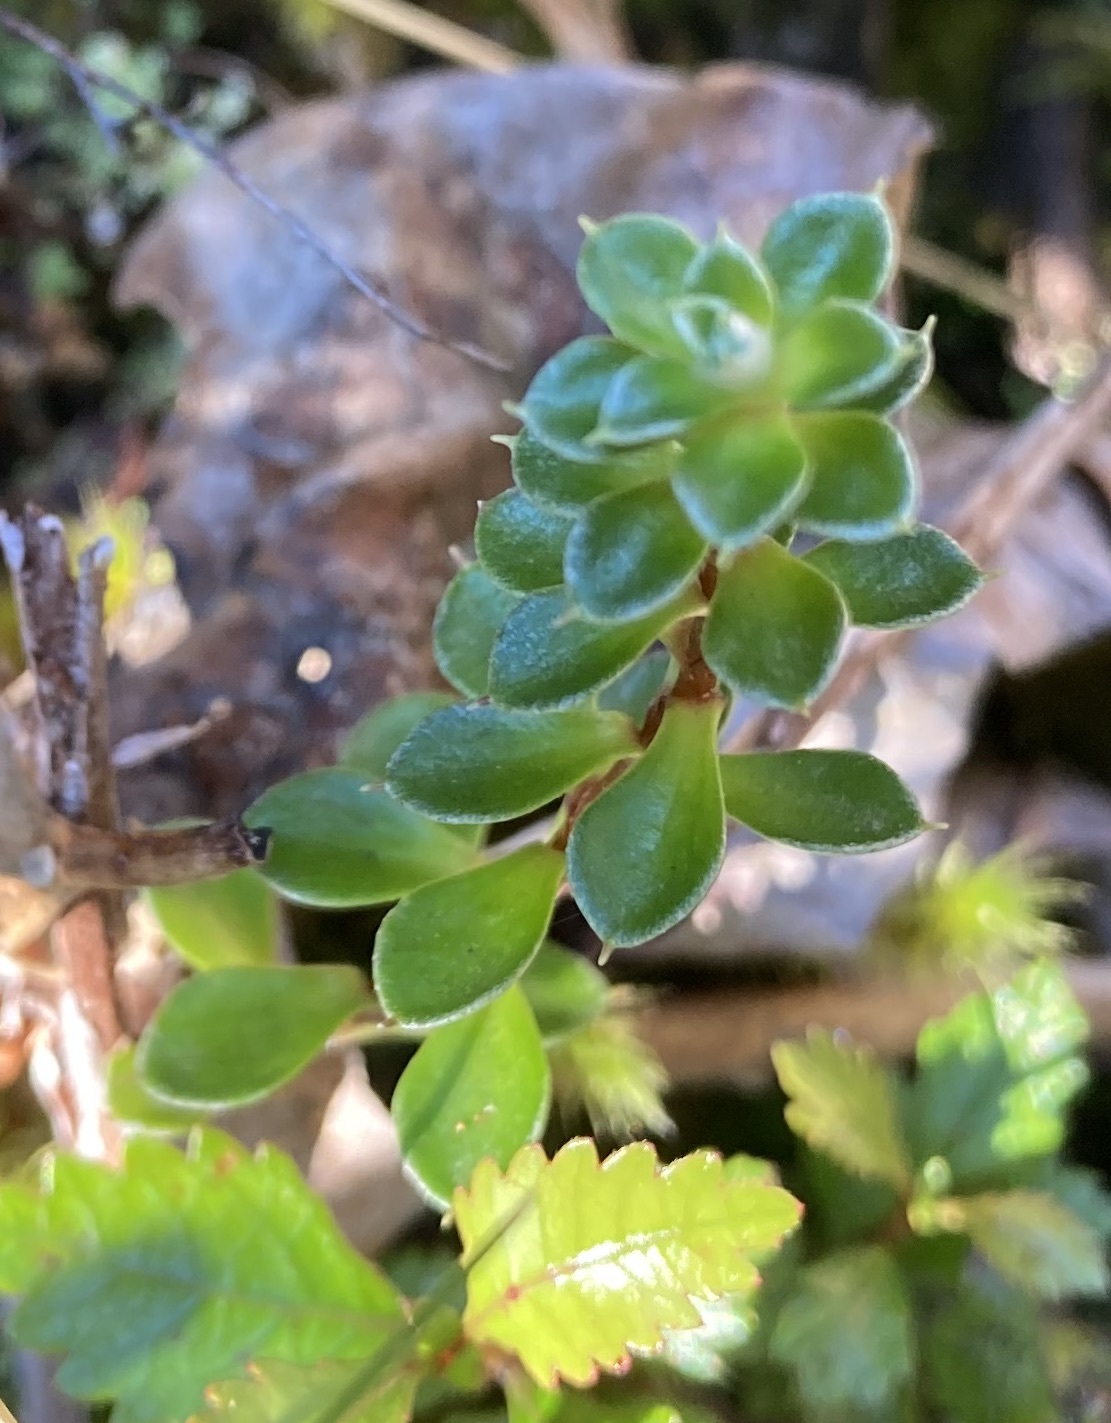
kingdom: Plantae
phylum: Tracheophyta
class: Magnoliopsida
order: Asterales
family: Asteraceae
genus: Anaphalioides
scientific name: Anaphalioides alpina
